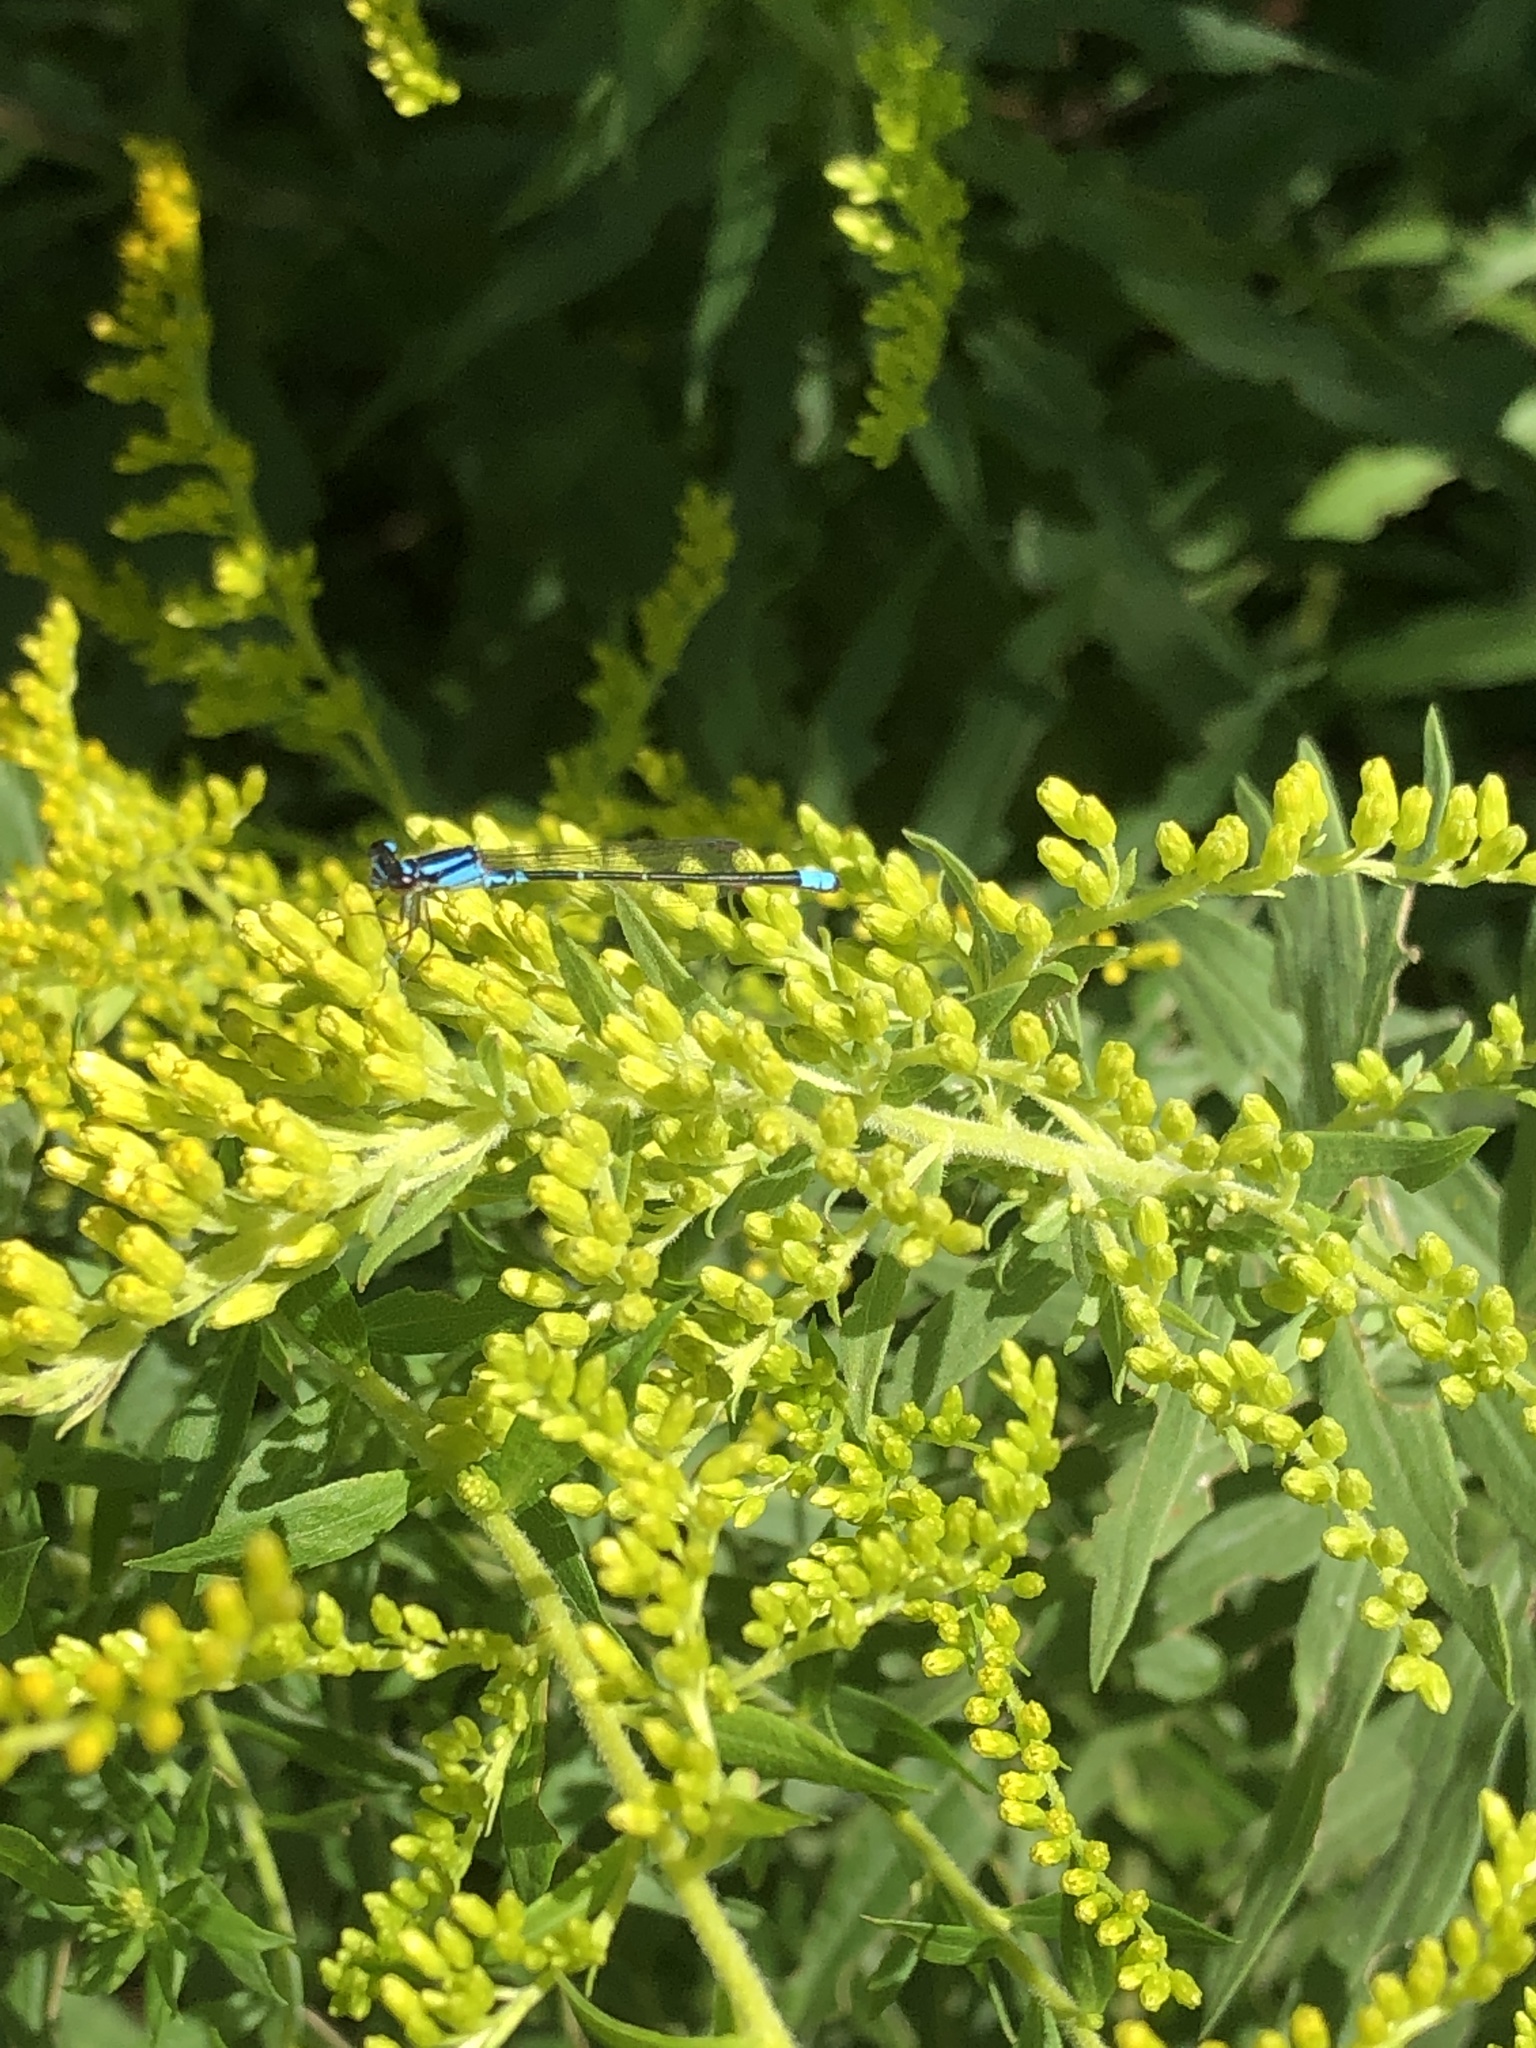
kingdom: Animalia
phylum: Arthropoda
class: Insecta
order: Odonata
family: Coenagrionidae
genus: Enallagma
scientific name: Enallagma geminatum
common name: Skimming bluet
